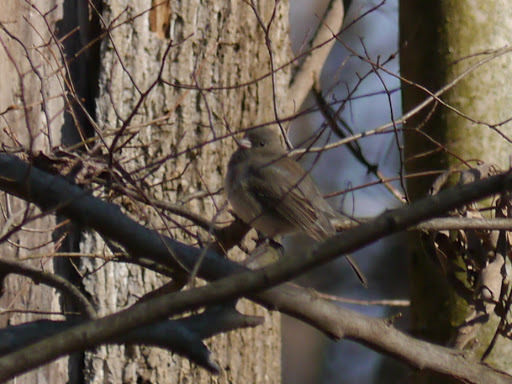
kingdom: Animalia
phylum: Chordata
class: Aves
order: Passeriformes
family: Passerellidae
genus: Junco
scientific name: Junco hyemalis
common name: Dark-eyed junco
